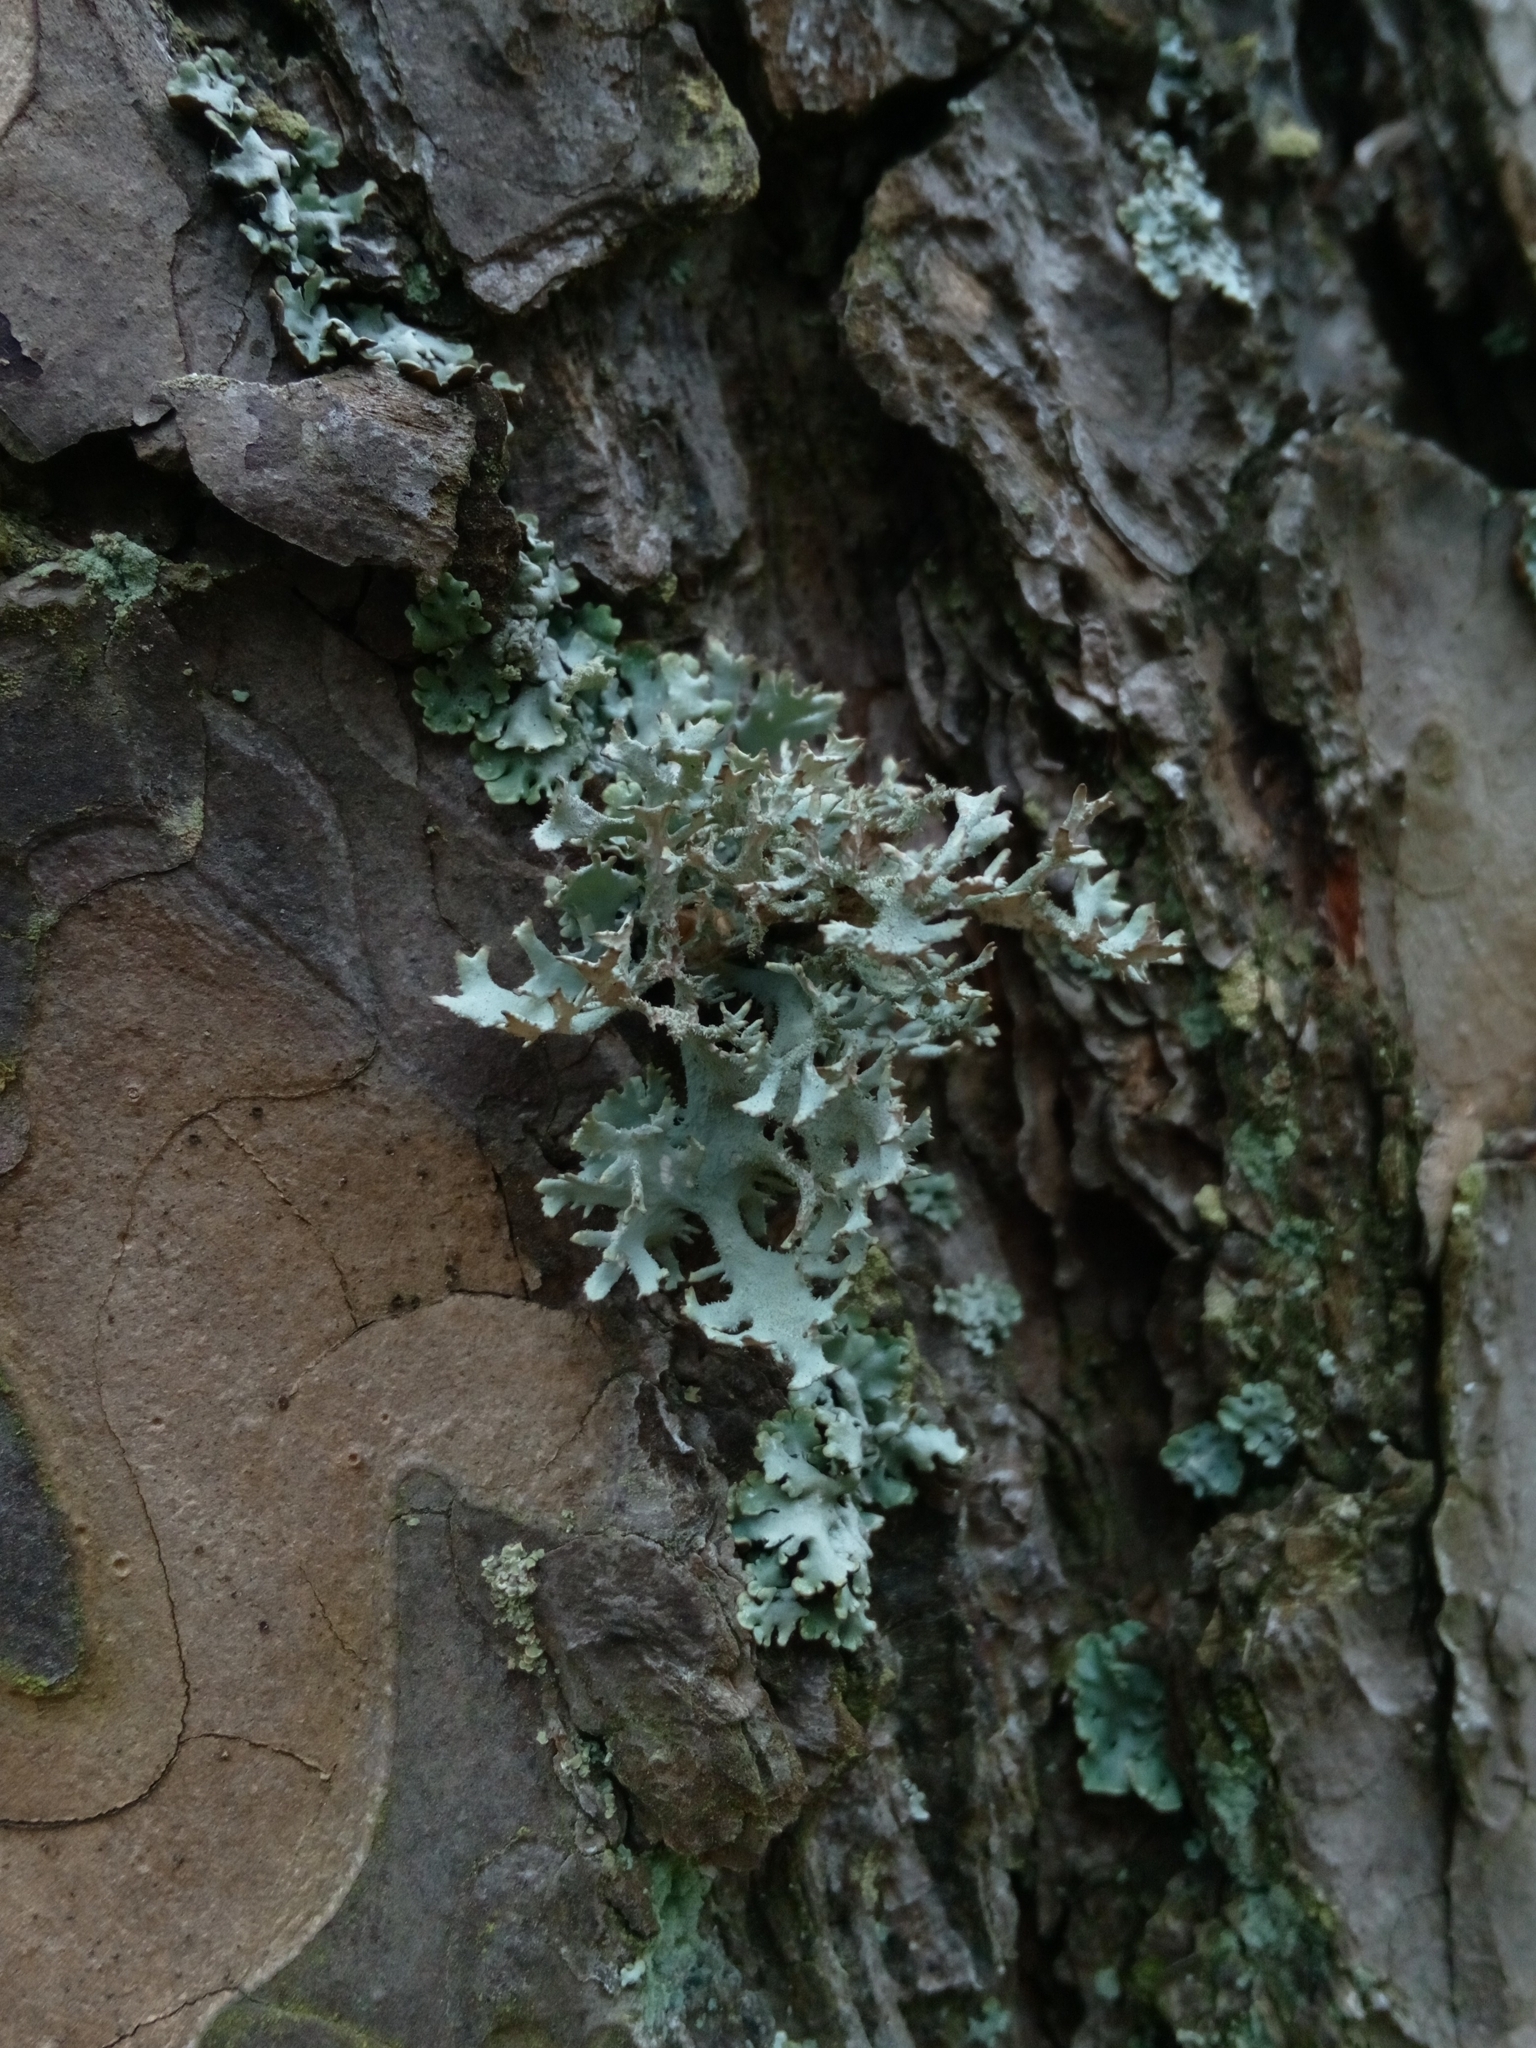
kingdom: Fungi
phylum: Ascomycota
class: Lecanoromycetes
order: Lecanorales
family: Parmeliaceae
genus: Pseudevernia
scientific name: Pseudevernia furfuracea
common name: Tree moss
